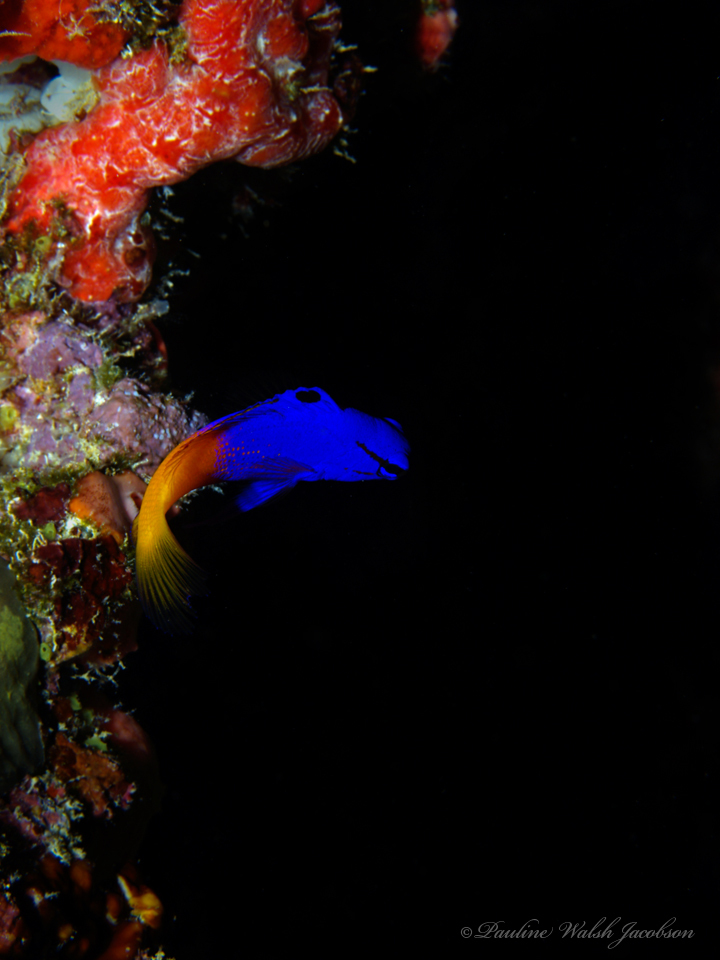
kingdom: Animalia
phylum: Chordata
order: Perciformes
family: Grammatidae
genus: Gramma
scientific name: Gramma loreto
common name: Fairy basslet
